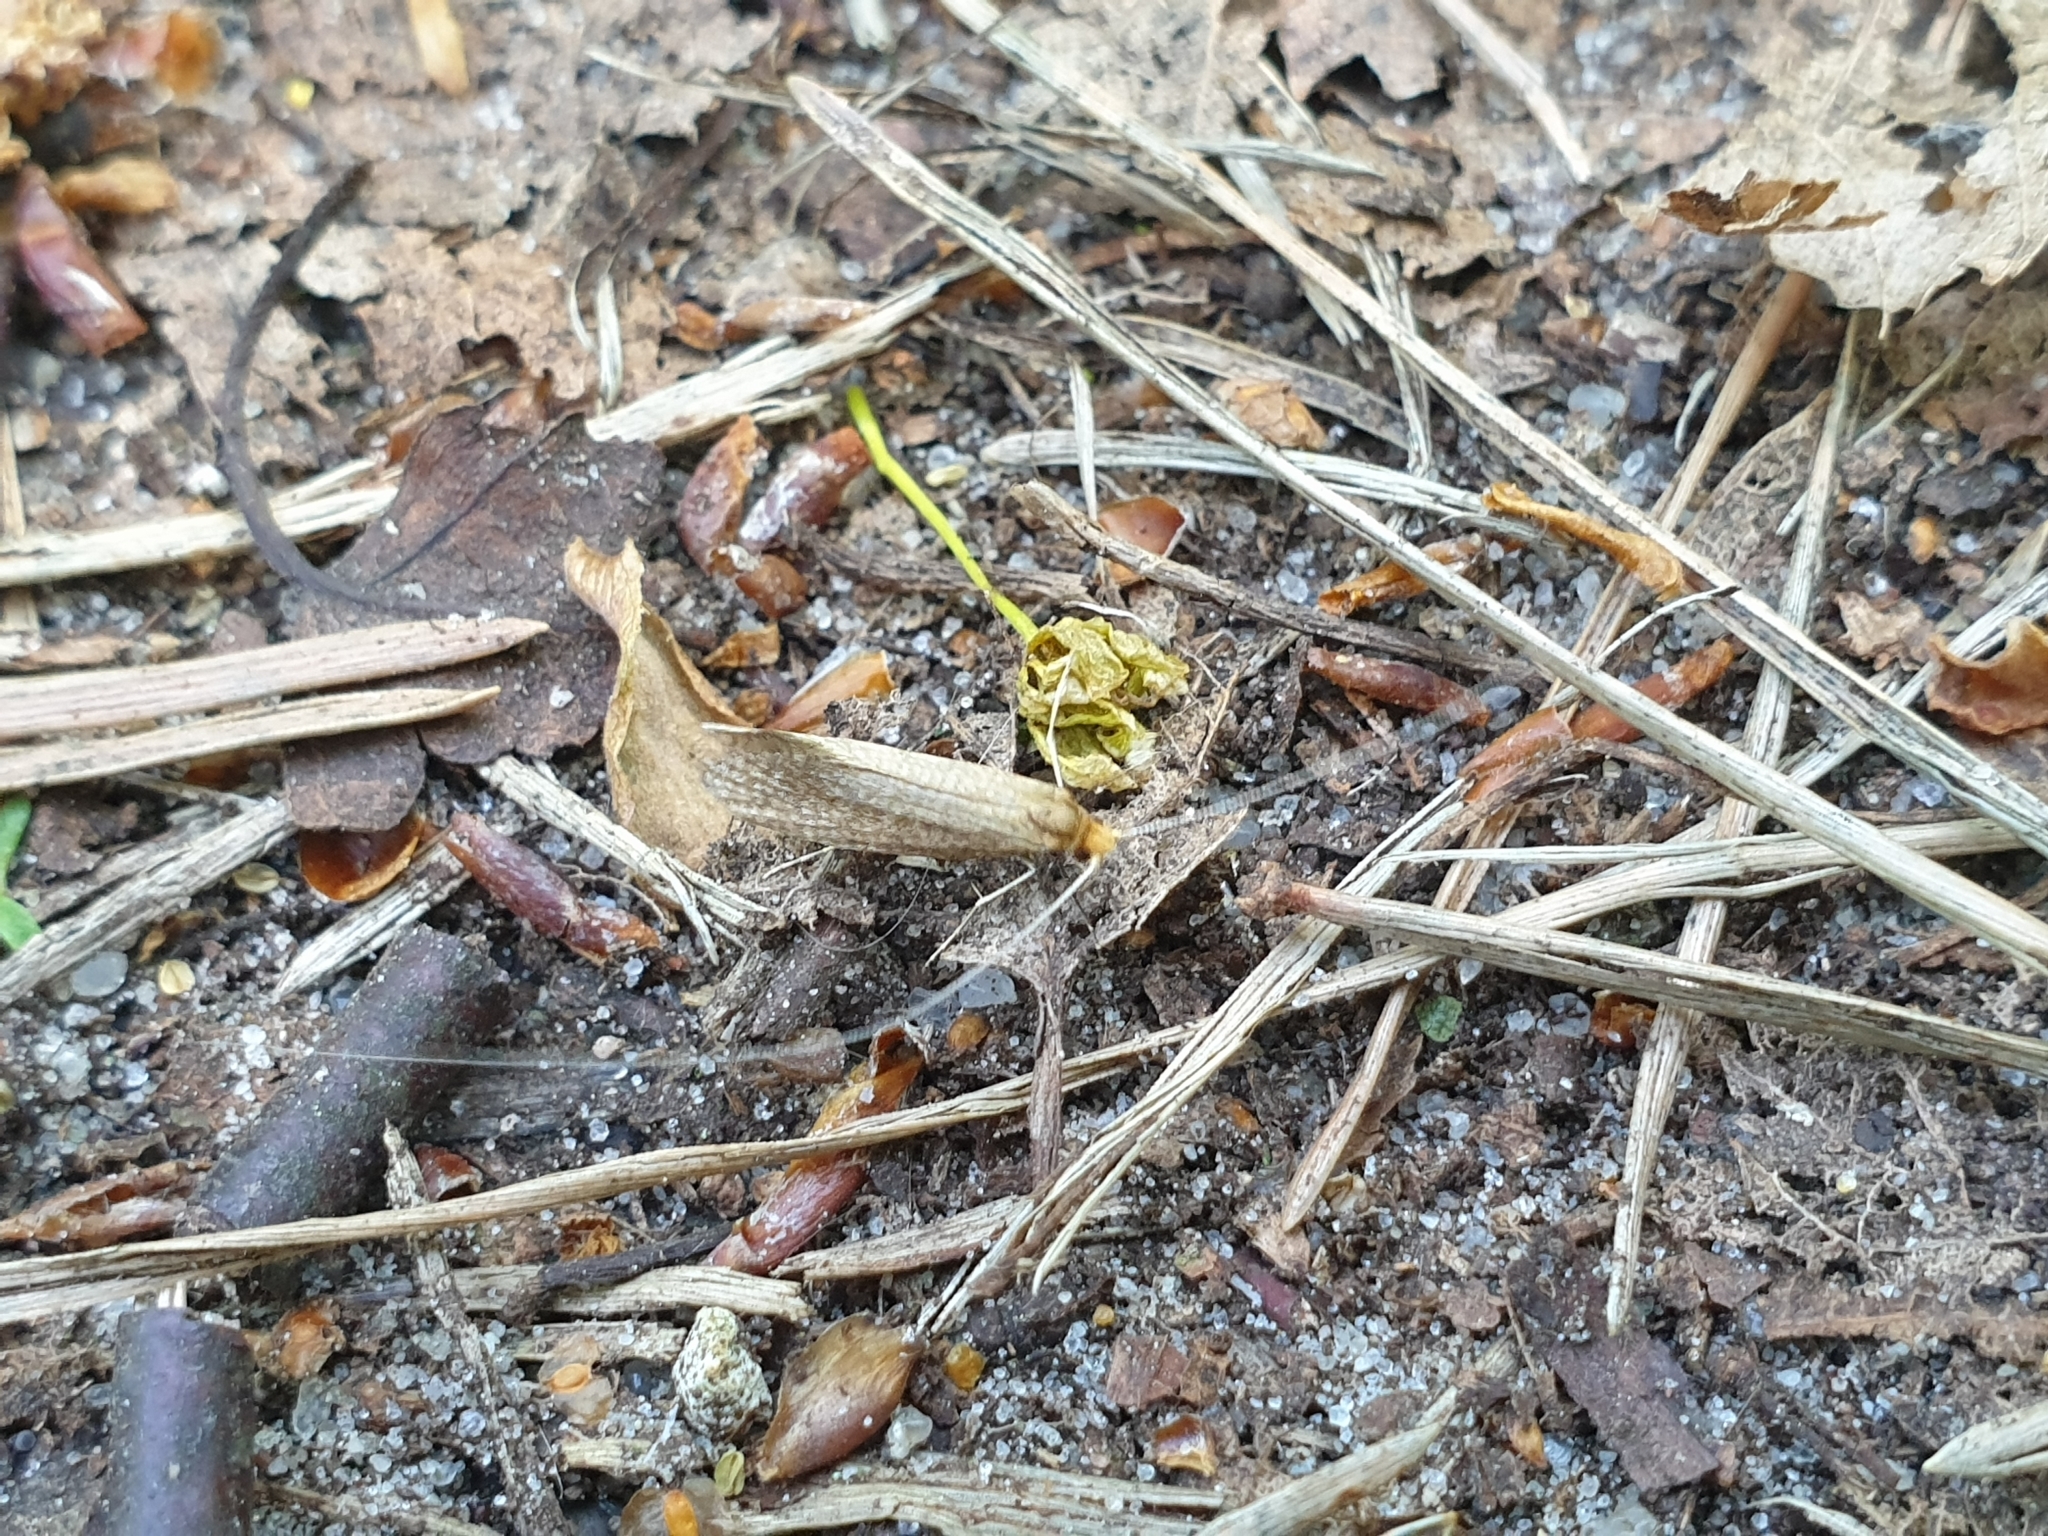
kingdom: Animalia
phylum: Arthropoda
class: Insecta
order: Lepidoptera
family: Adelidae
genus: Nematopogon
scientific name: Nematopogon adansoniella
